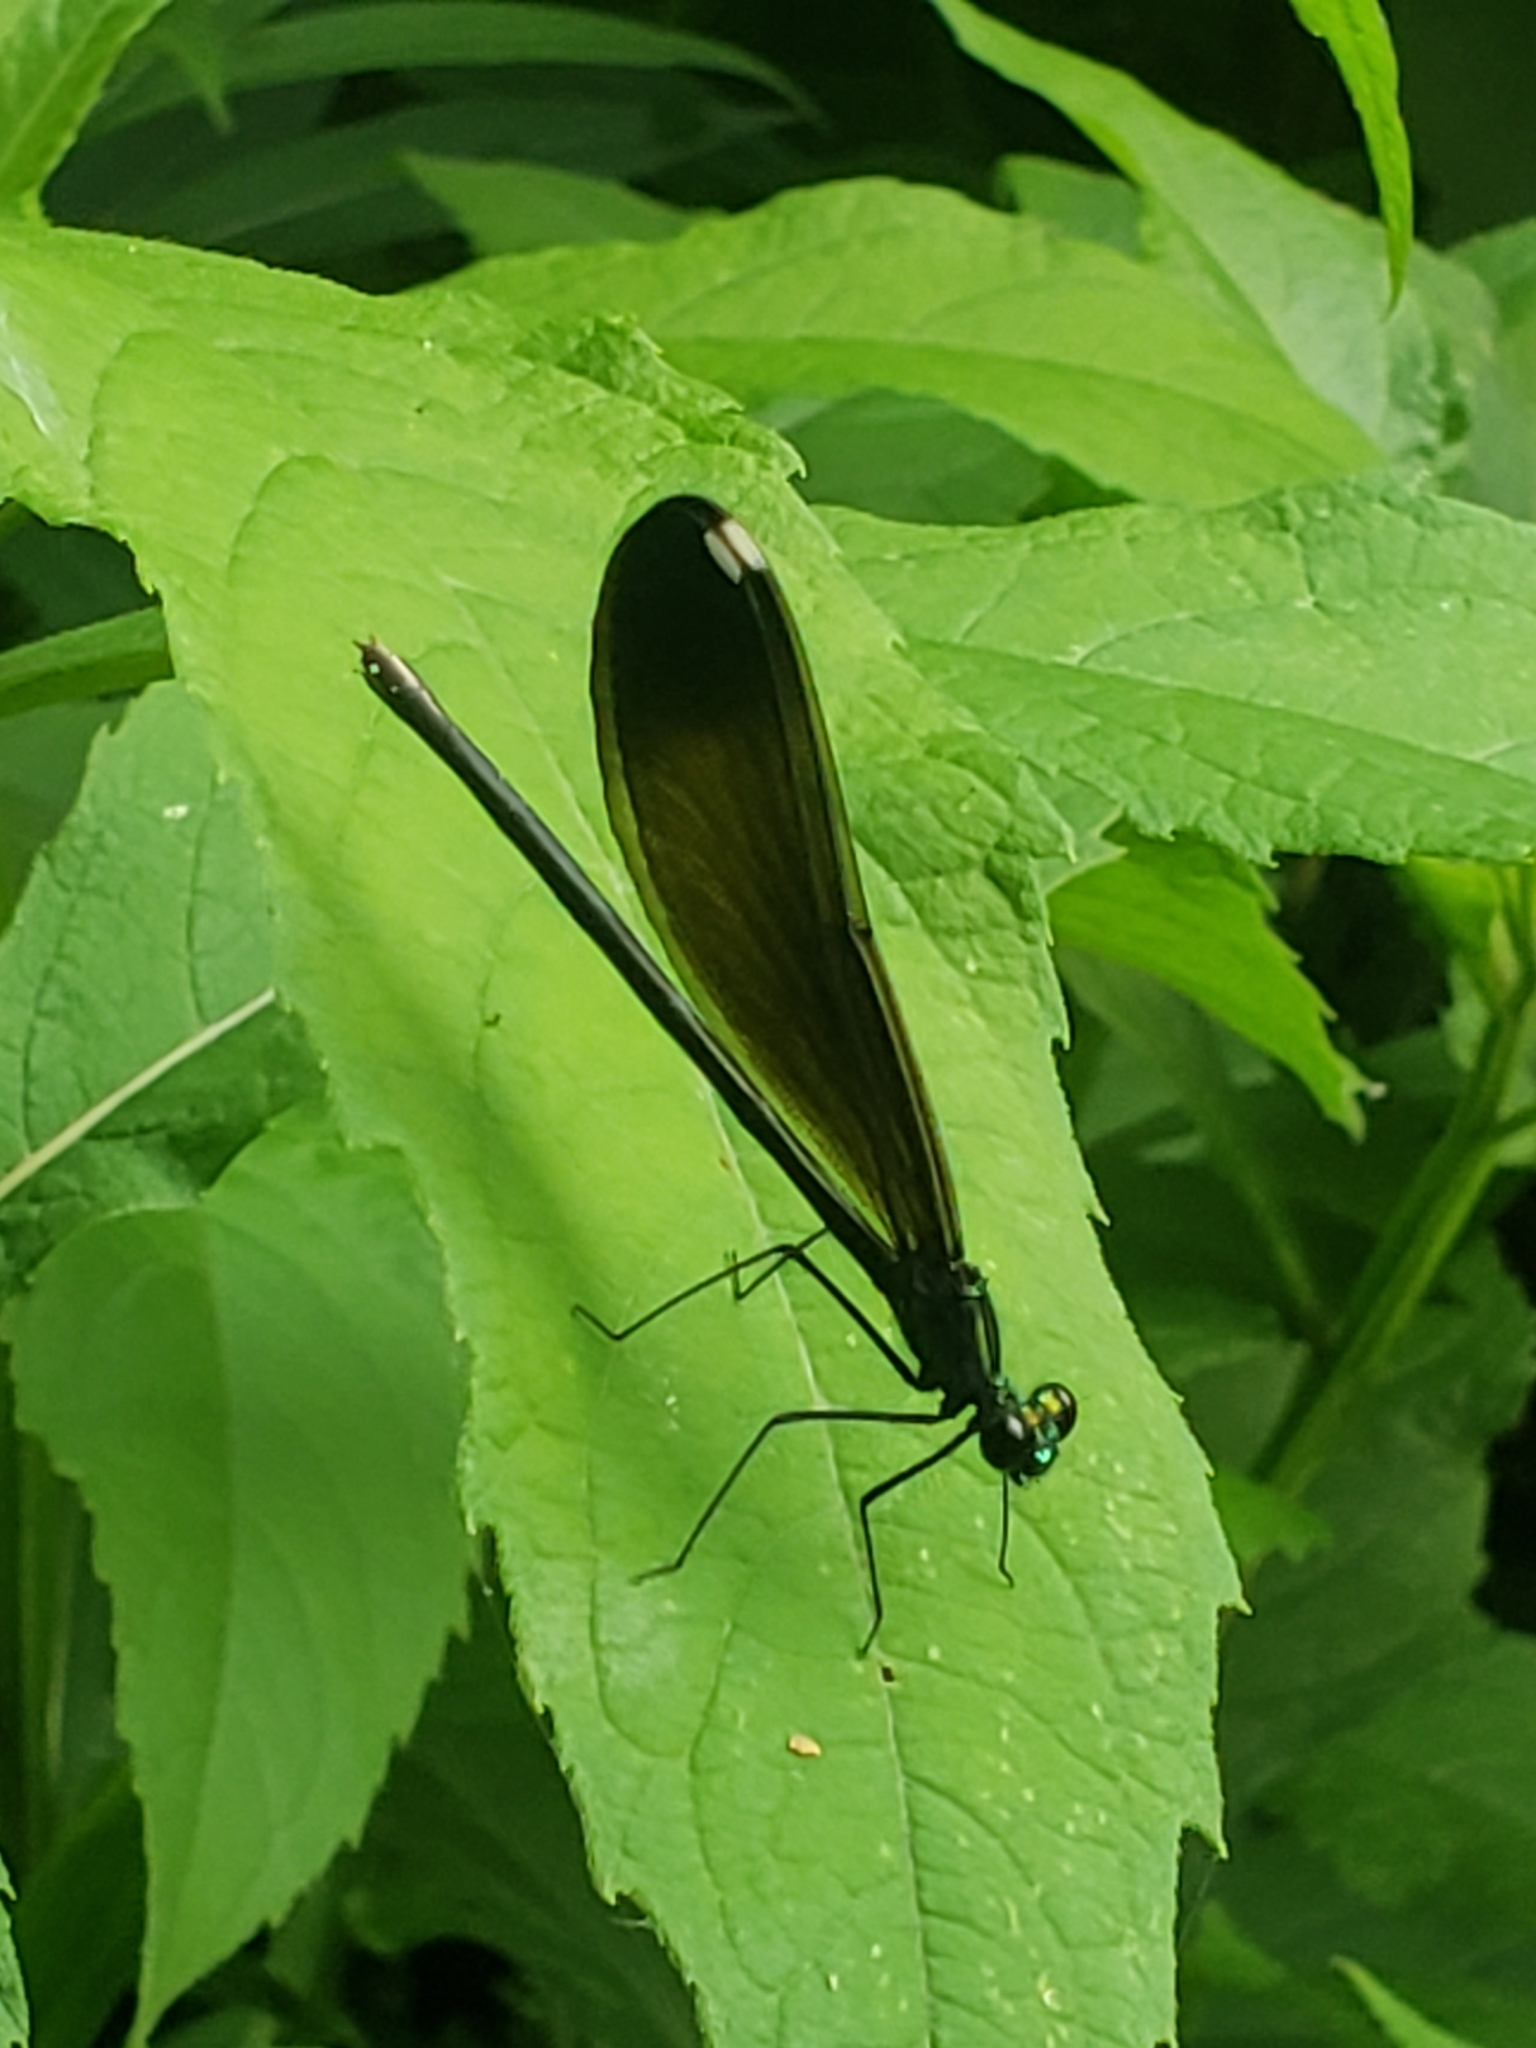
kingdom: Animalia
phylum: Arthropoda
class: Insecta
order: Odonata
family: Calopterygidae
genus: Calopteryx
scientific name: Calopteryx maculata
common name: Ebony jewelwing
